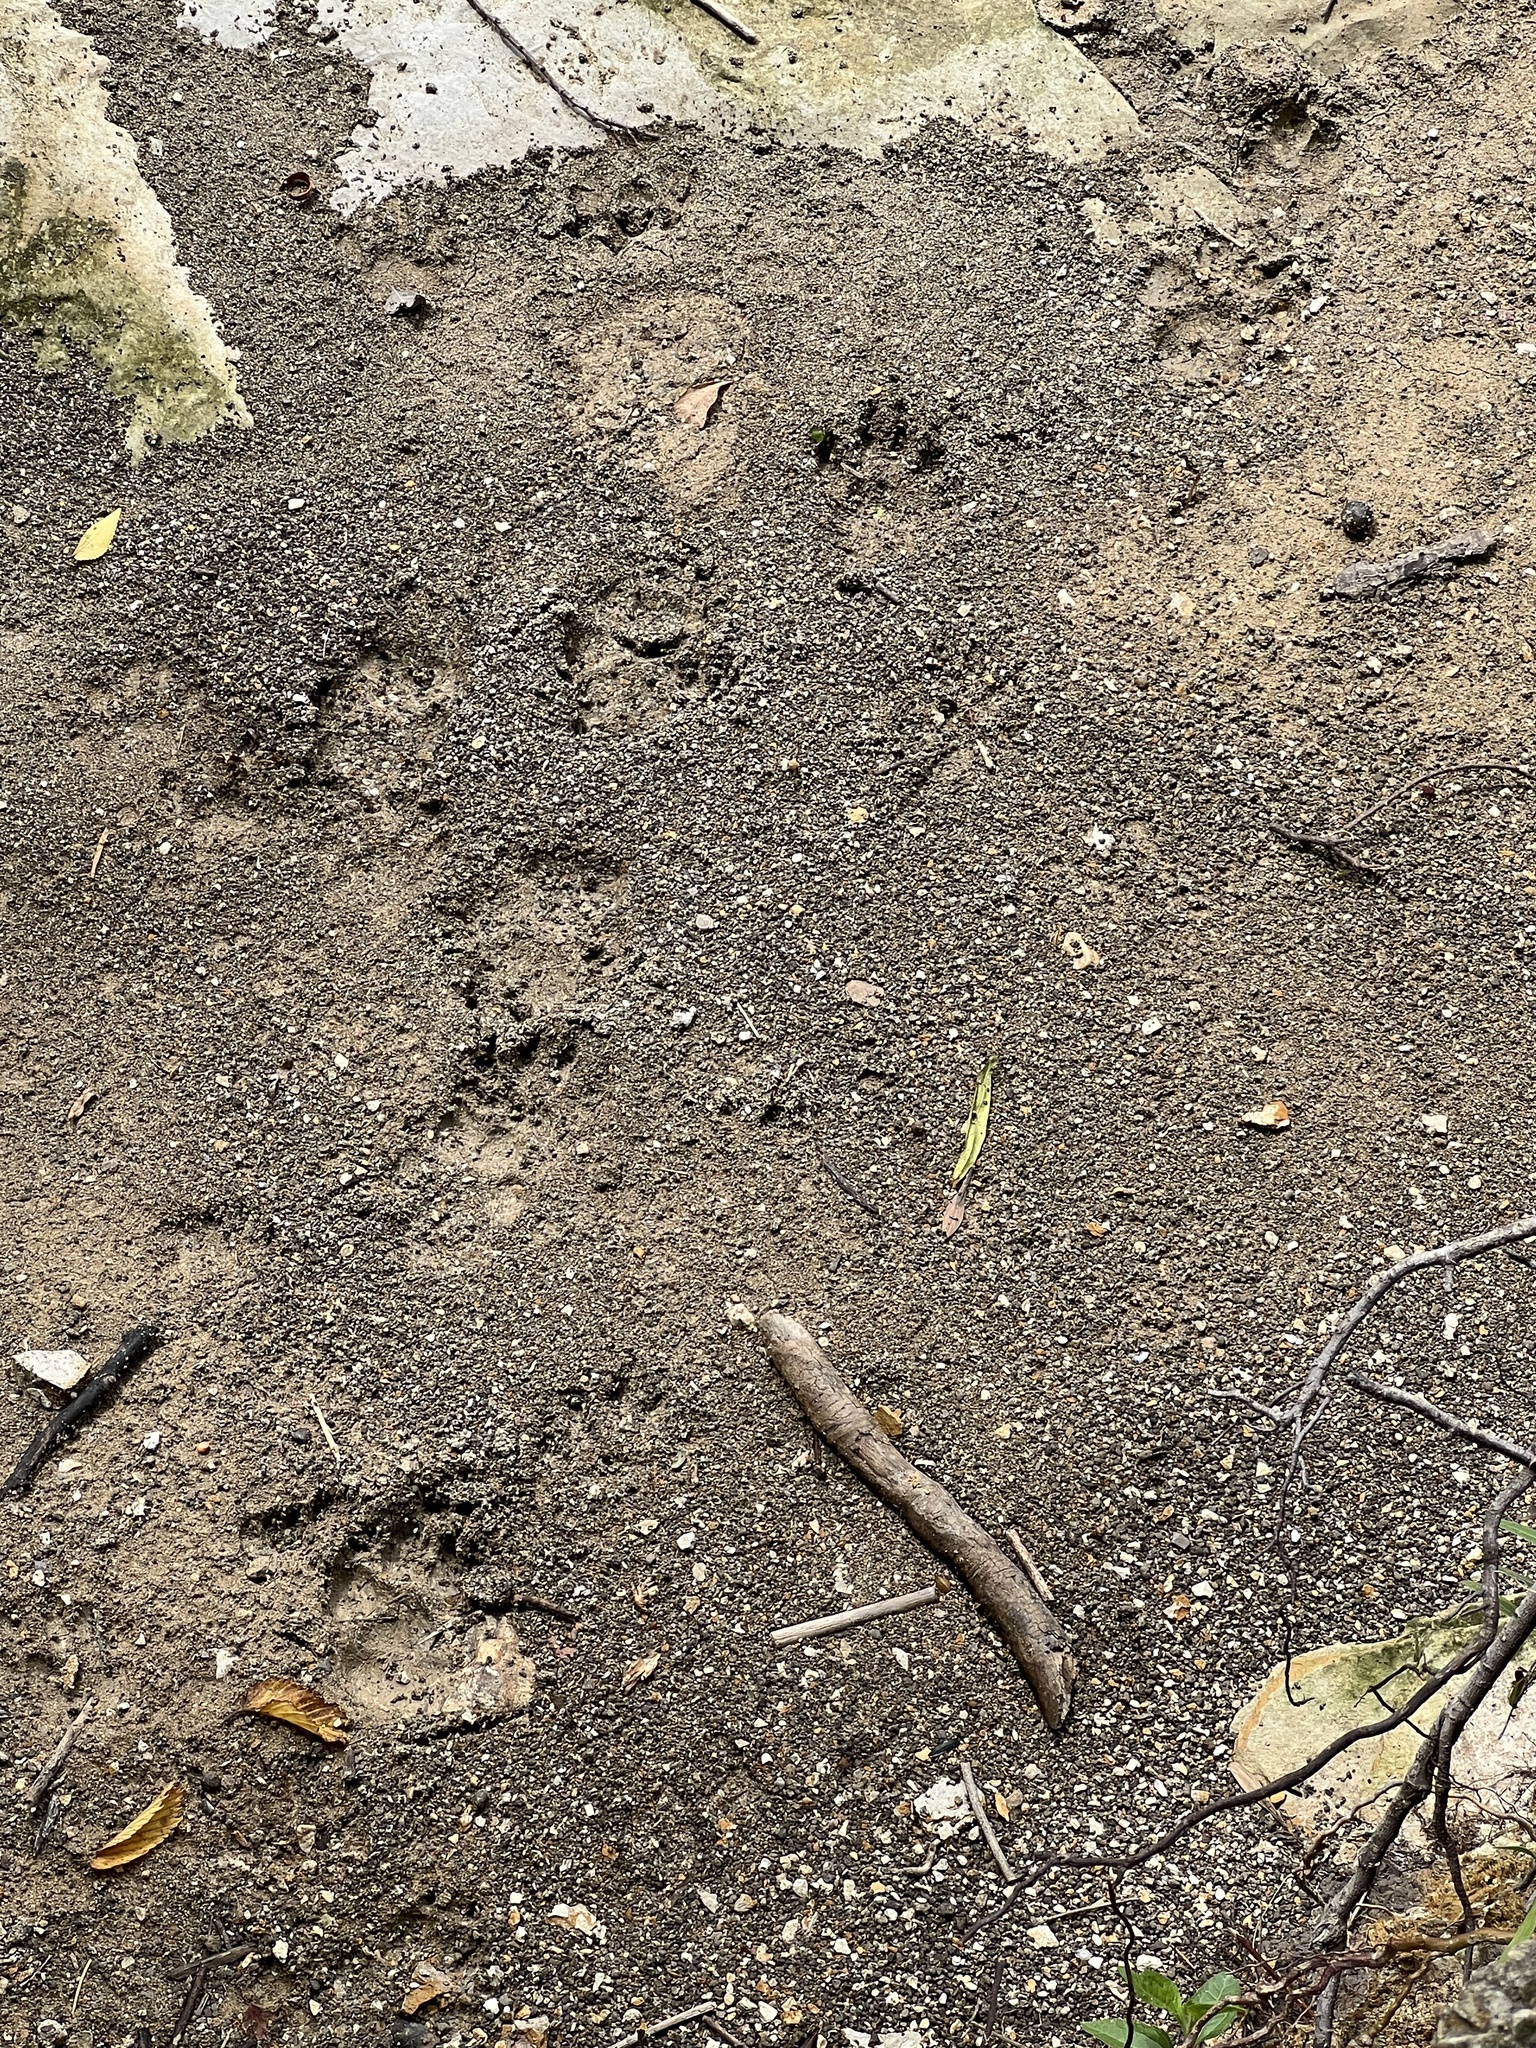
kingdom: Animalia
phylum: Chordata
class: Mammalia
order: Carnivora
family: Procyonidae
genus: Procyon
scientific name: Procyon lotor
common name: Raccoon
